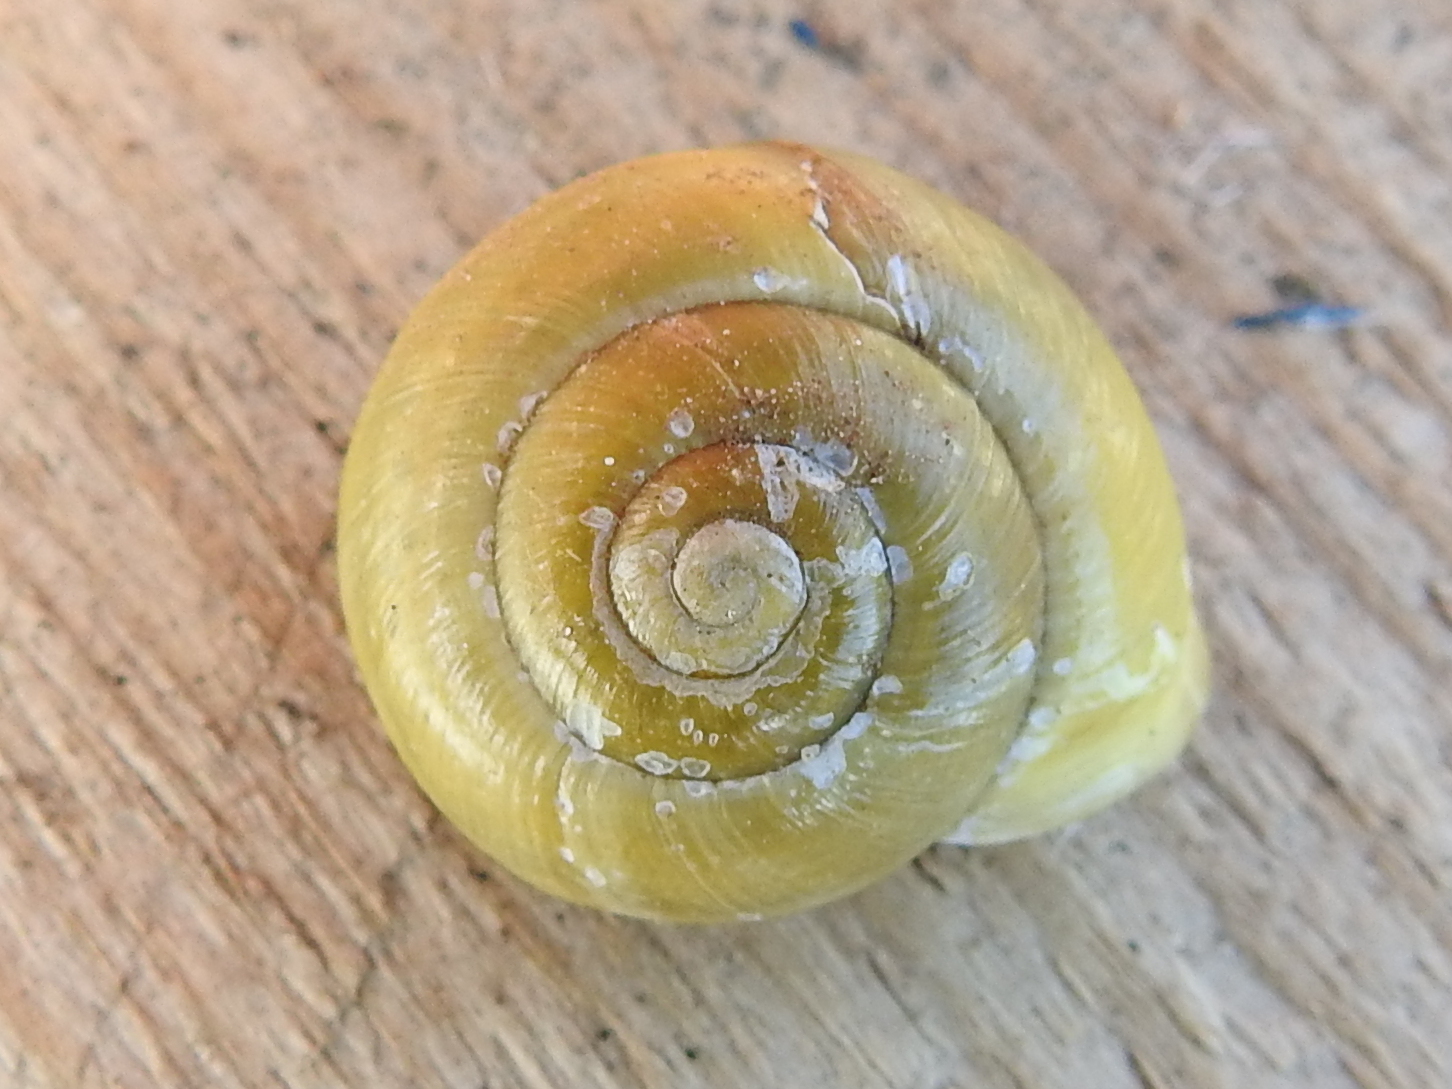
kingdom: Animalia
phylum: Mollusca
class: Gastropoda
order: Stylommatophora
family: Helicidae
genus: Cepaea
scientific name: Cepaea hortensis
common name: White-lip gardensnail
